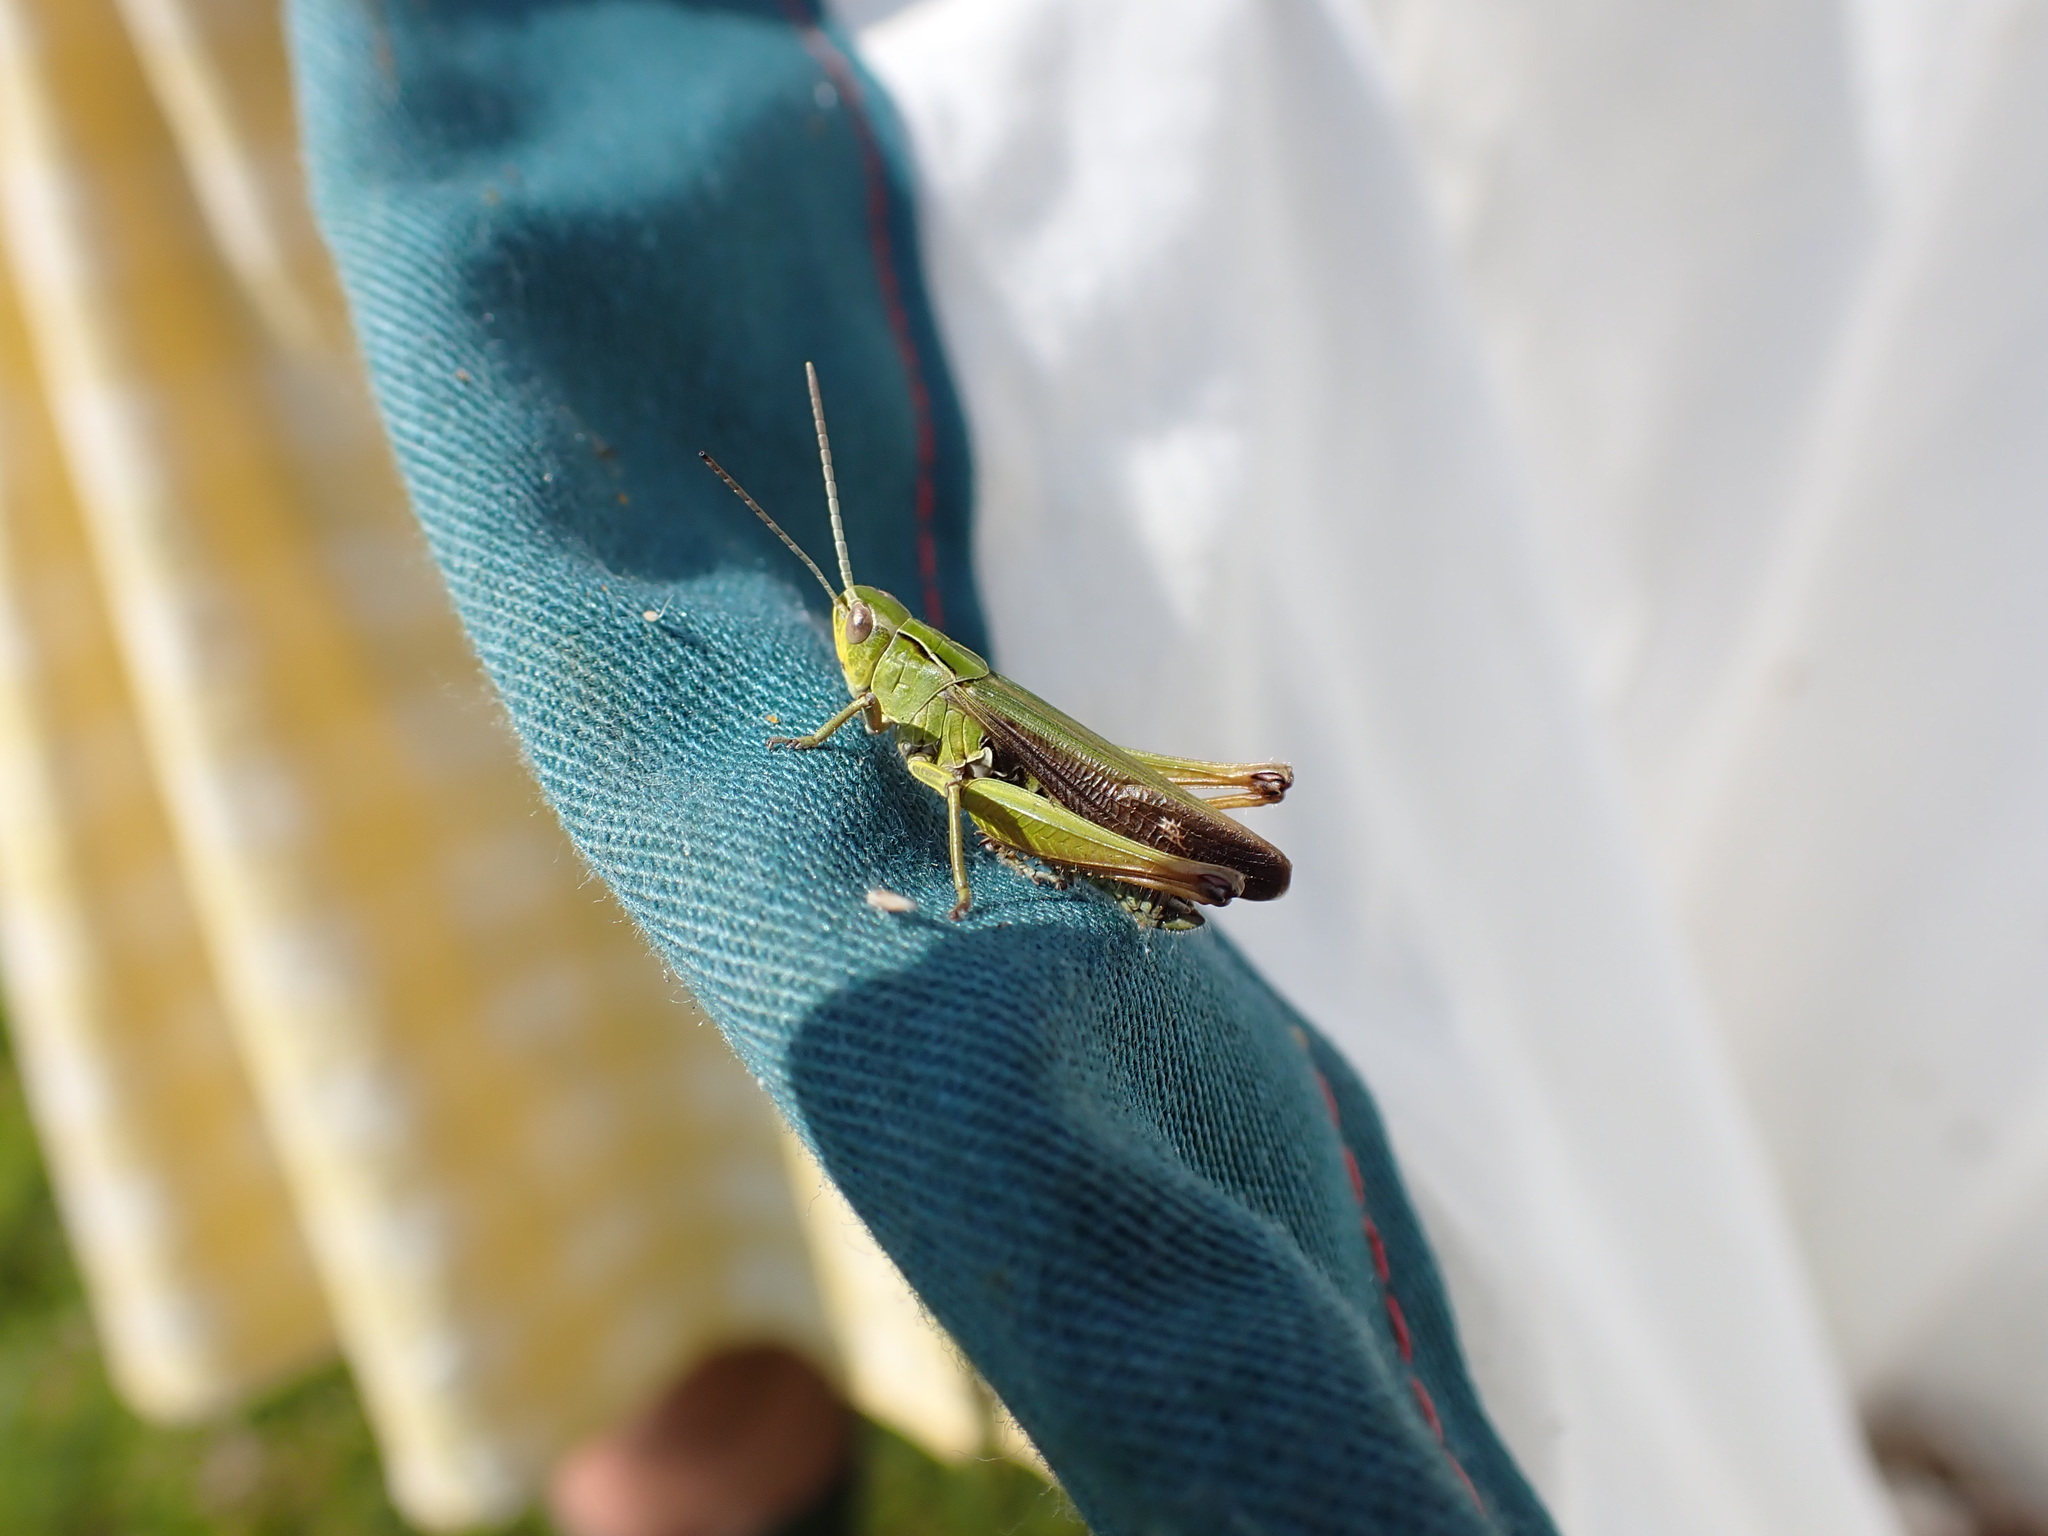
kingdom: Animalia
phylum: Arthropoda
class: Insecta
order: Orthoptera
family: Acrididae
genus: Omocestus
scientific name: Omocestus viridulus
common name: Common green grasshopper
